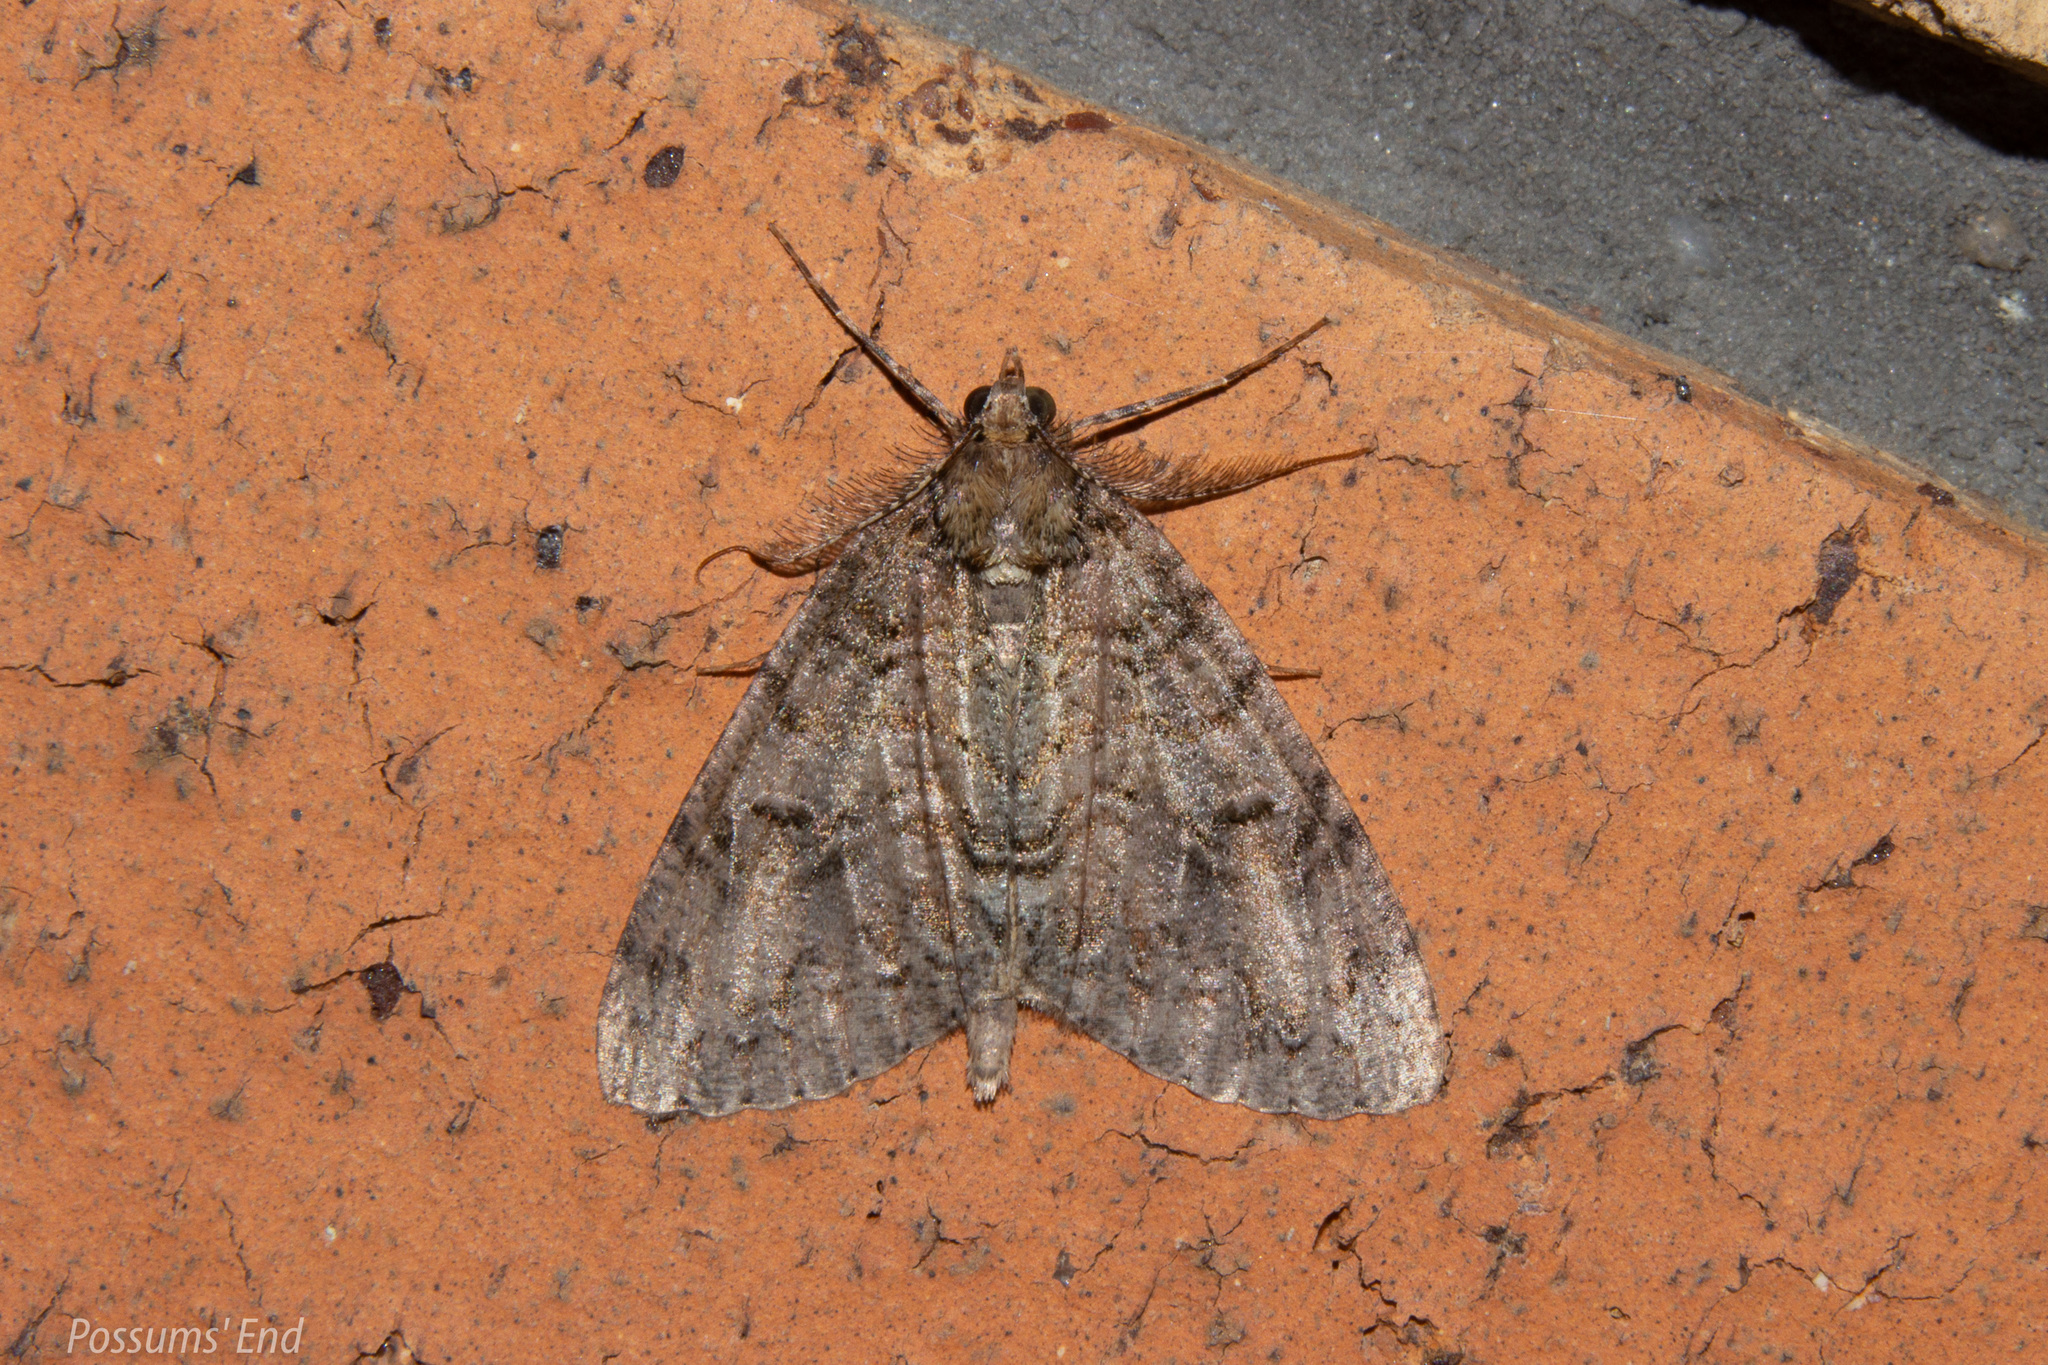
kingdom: Animalia
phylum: Arthropoda
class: Insecta
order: Lepidoptera
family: Geometridae
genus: Pseudocoremia
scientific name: Pseudocoremia suavis
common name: Common forest looper
